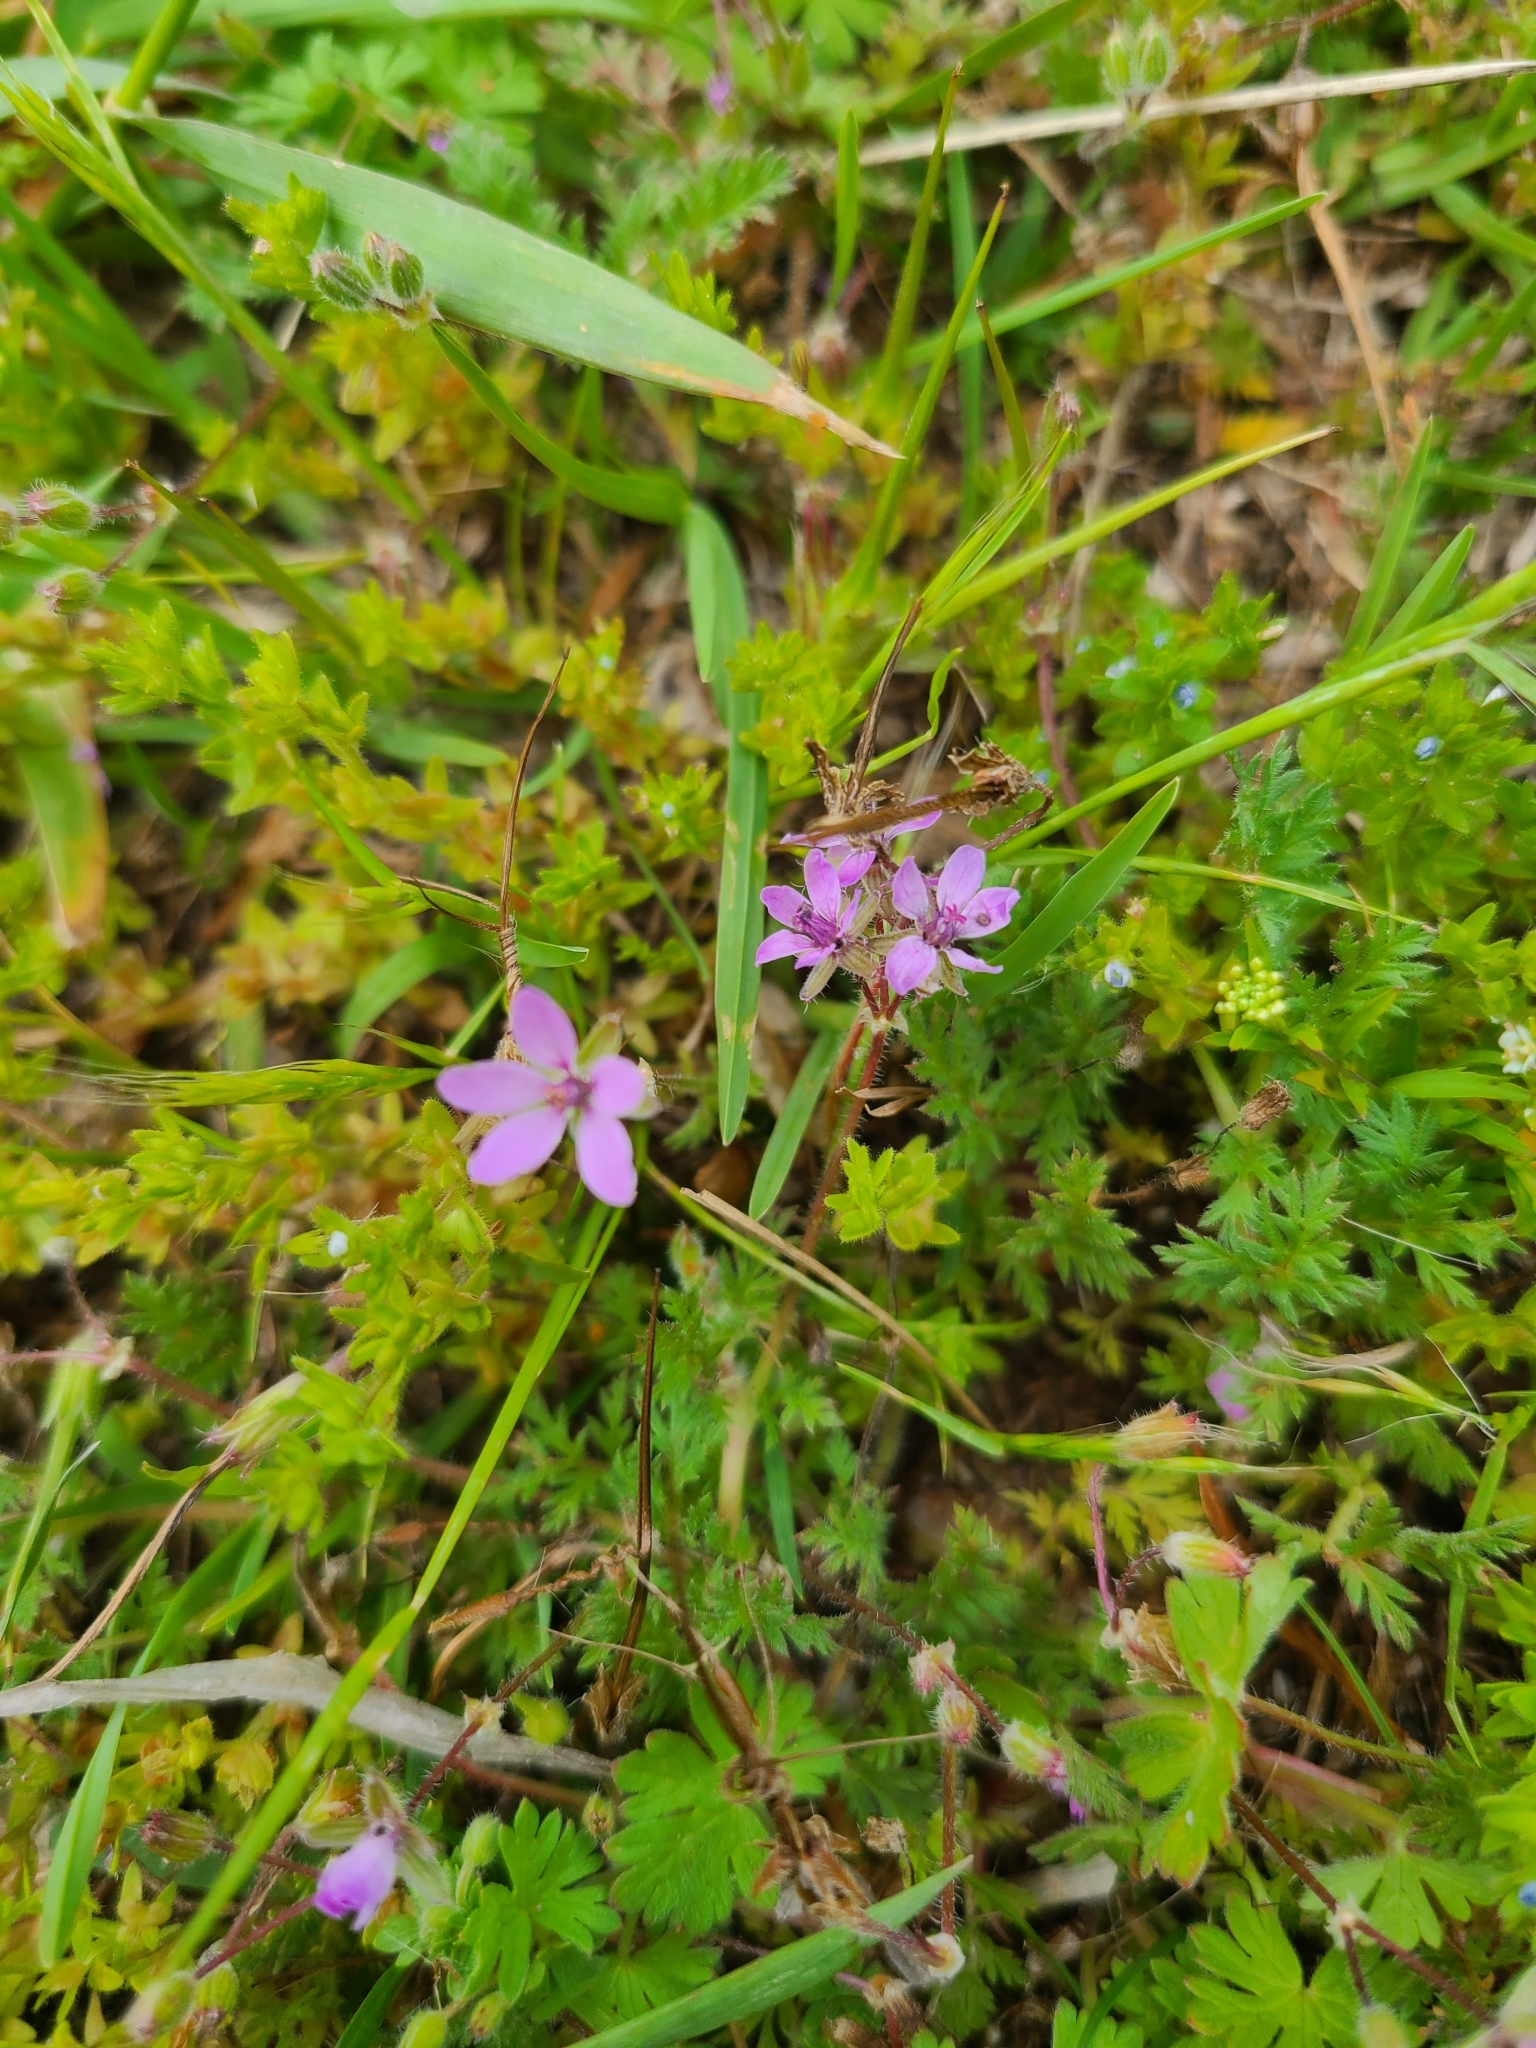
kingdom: Plantae
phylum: Tracheophyta
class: Magnoliopsida
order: Geraniales
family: Geraniaceae
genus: Erodium
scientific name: Erodium cicutarium
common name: Common stork's-bill
